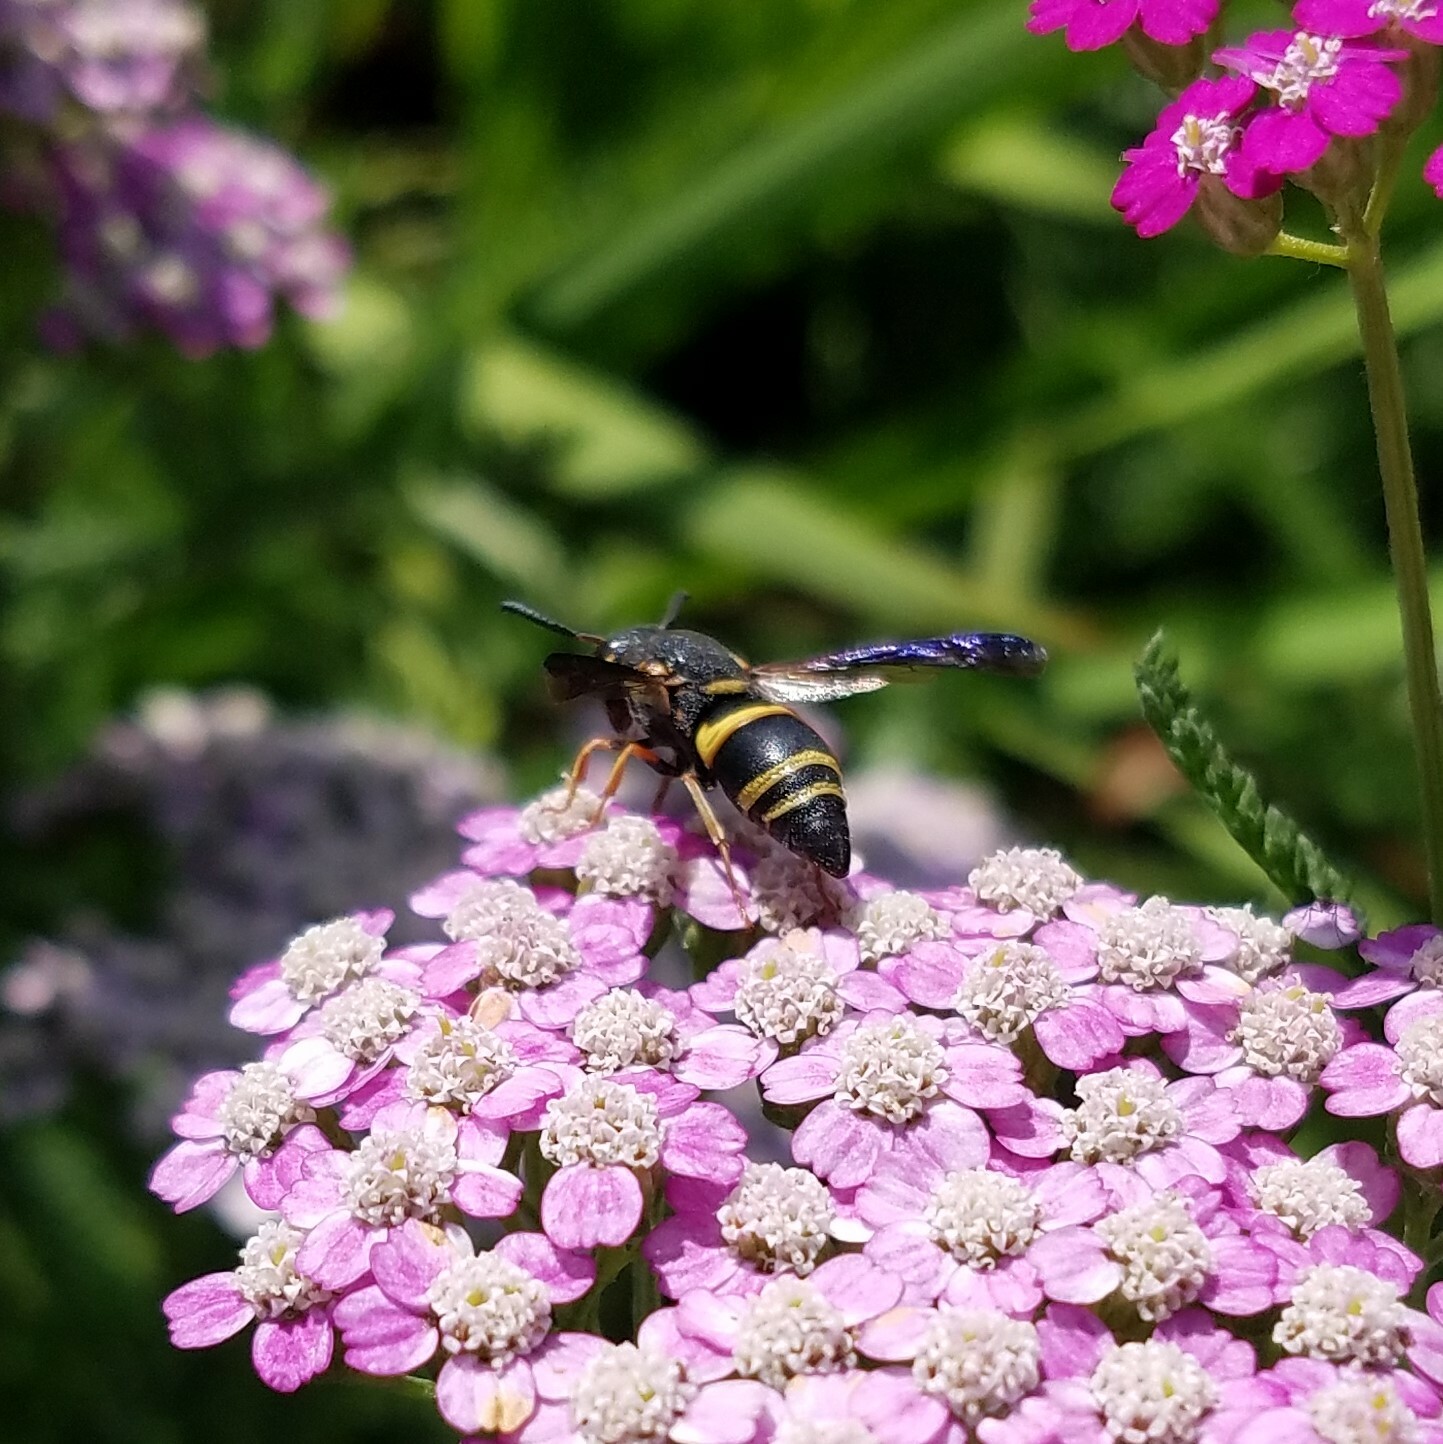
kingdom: Animalia
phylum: Arthropoda
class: Insecta
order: Hymenoptera
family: Eumenidae
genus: Euodynerus
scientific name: Euodynerus hidalgo
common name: Wasp
